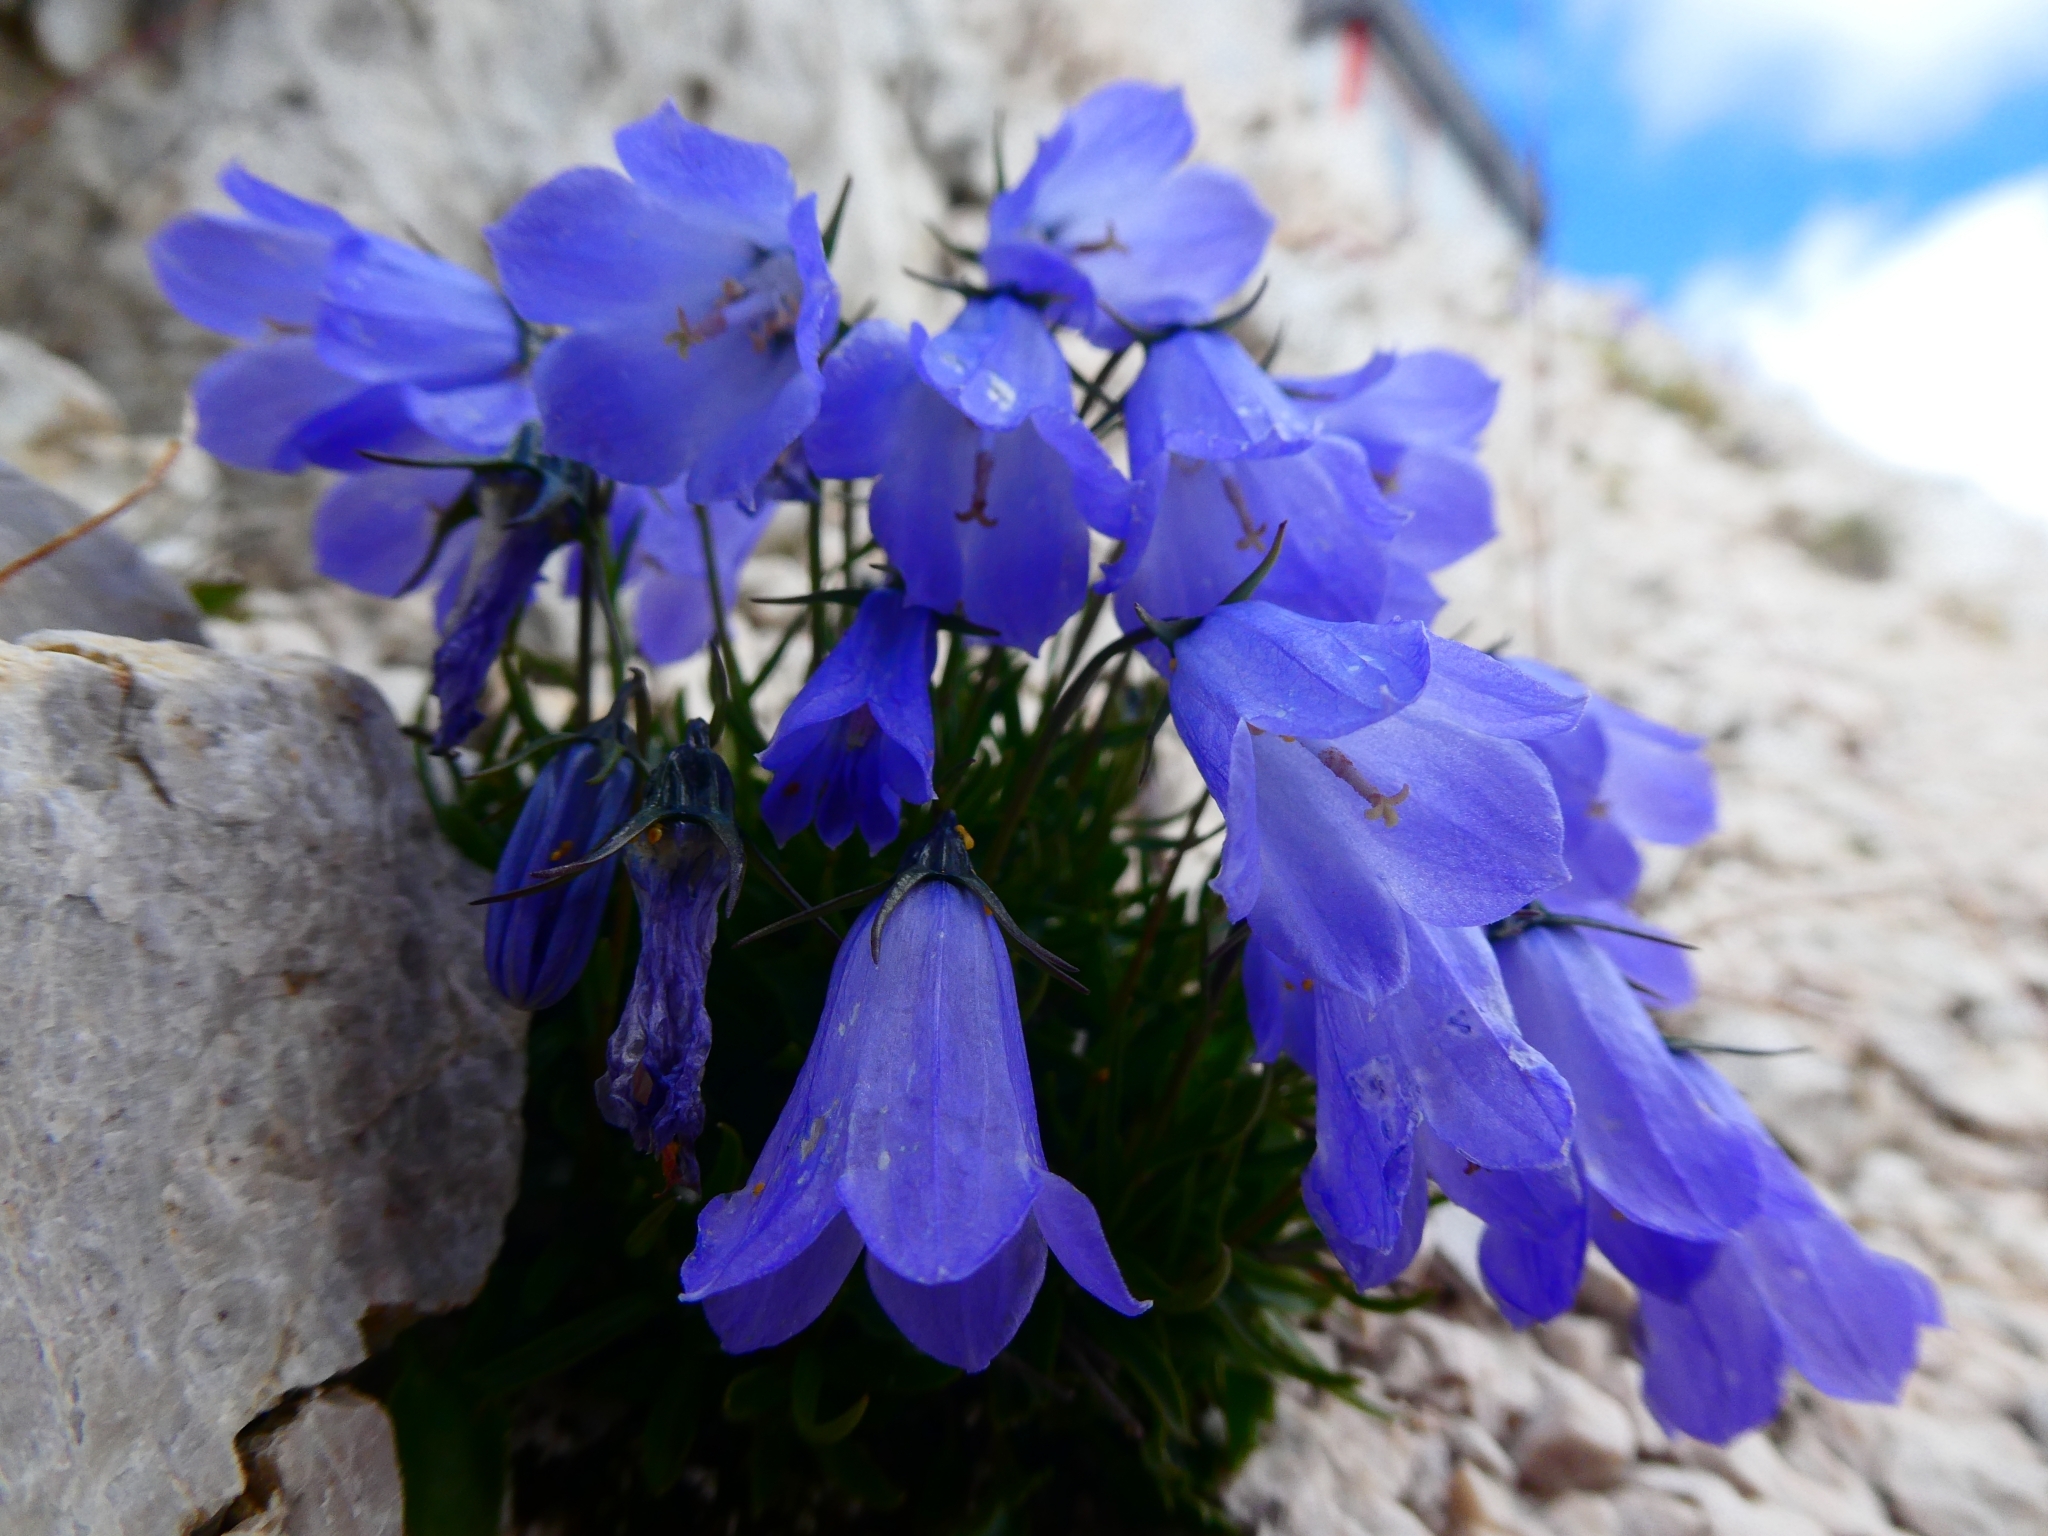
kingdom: Plantae
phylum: Tracheophyta
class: Magnoliopsida
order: Asterales
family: Campanulaceae
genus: Campanula
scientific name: Campanula cochleariifolia
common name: Fairies'-thimbles
